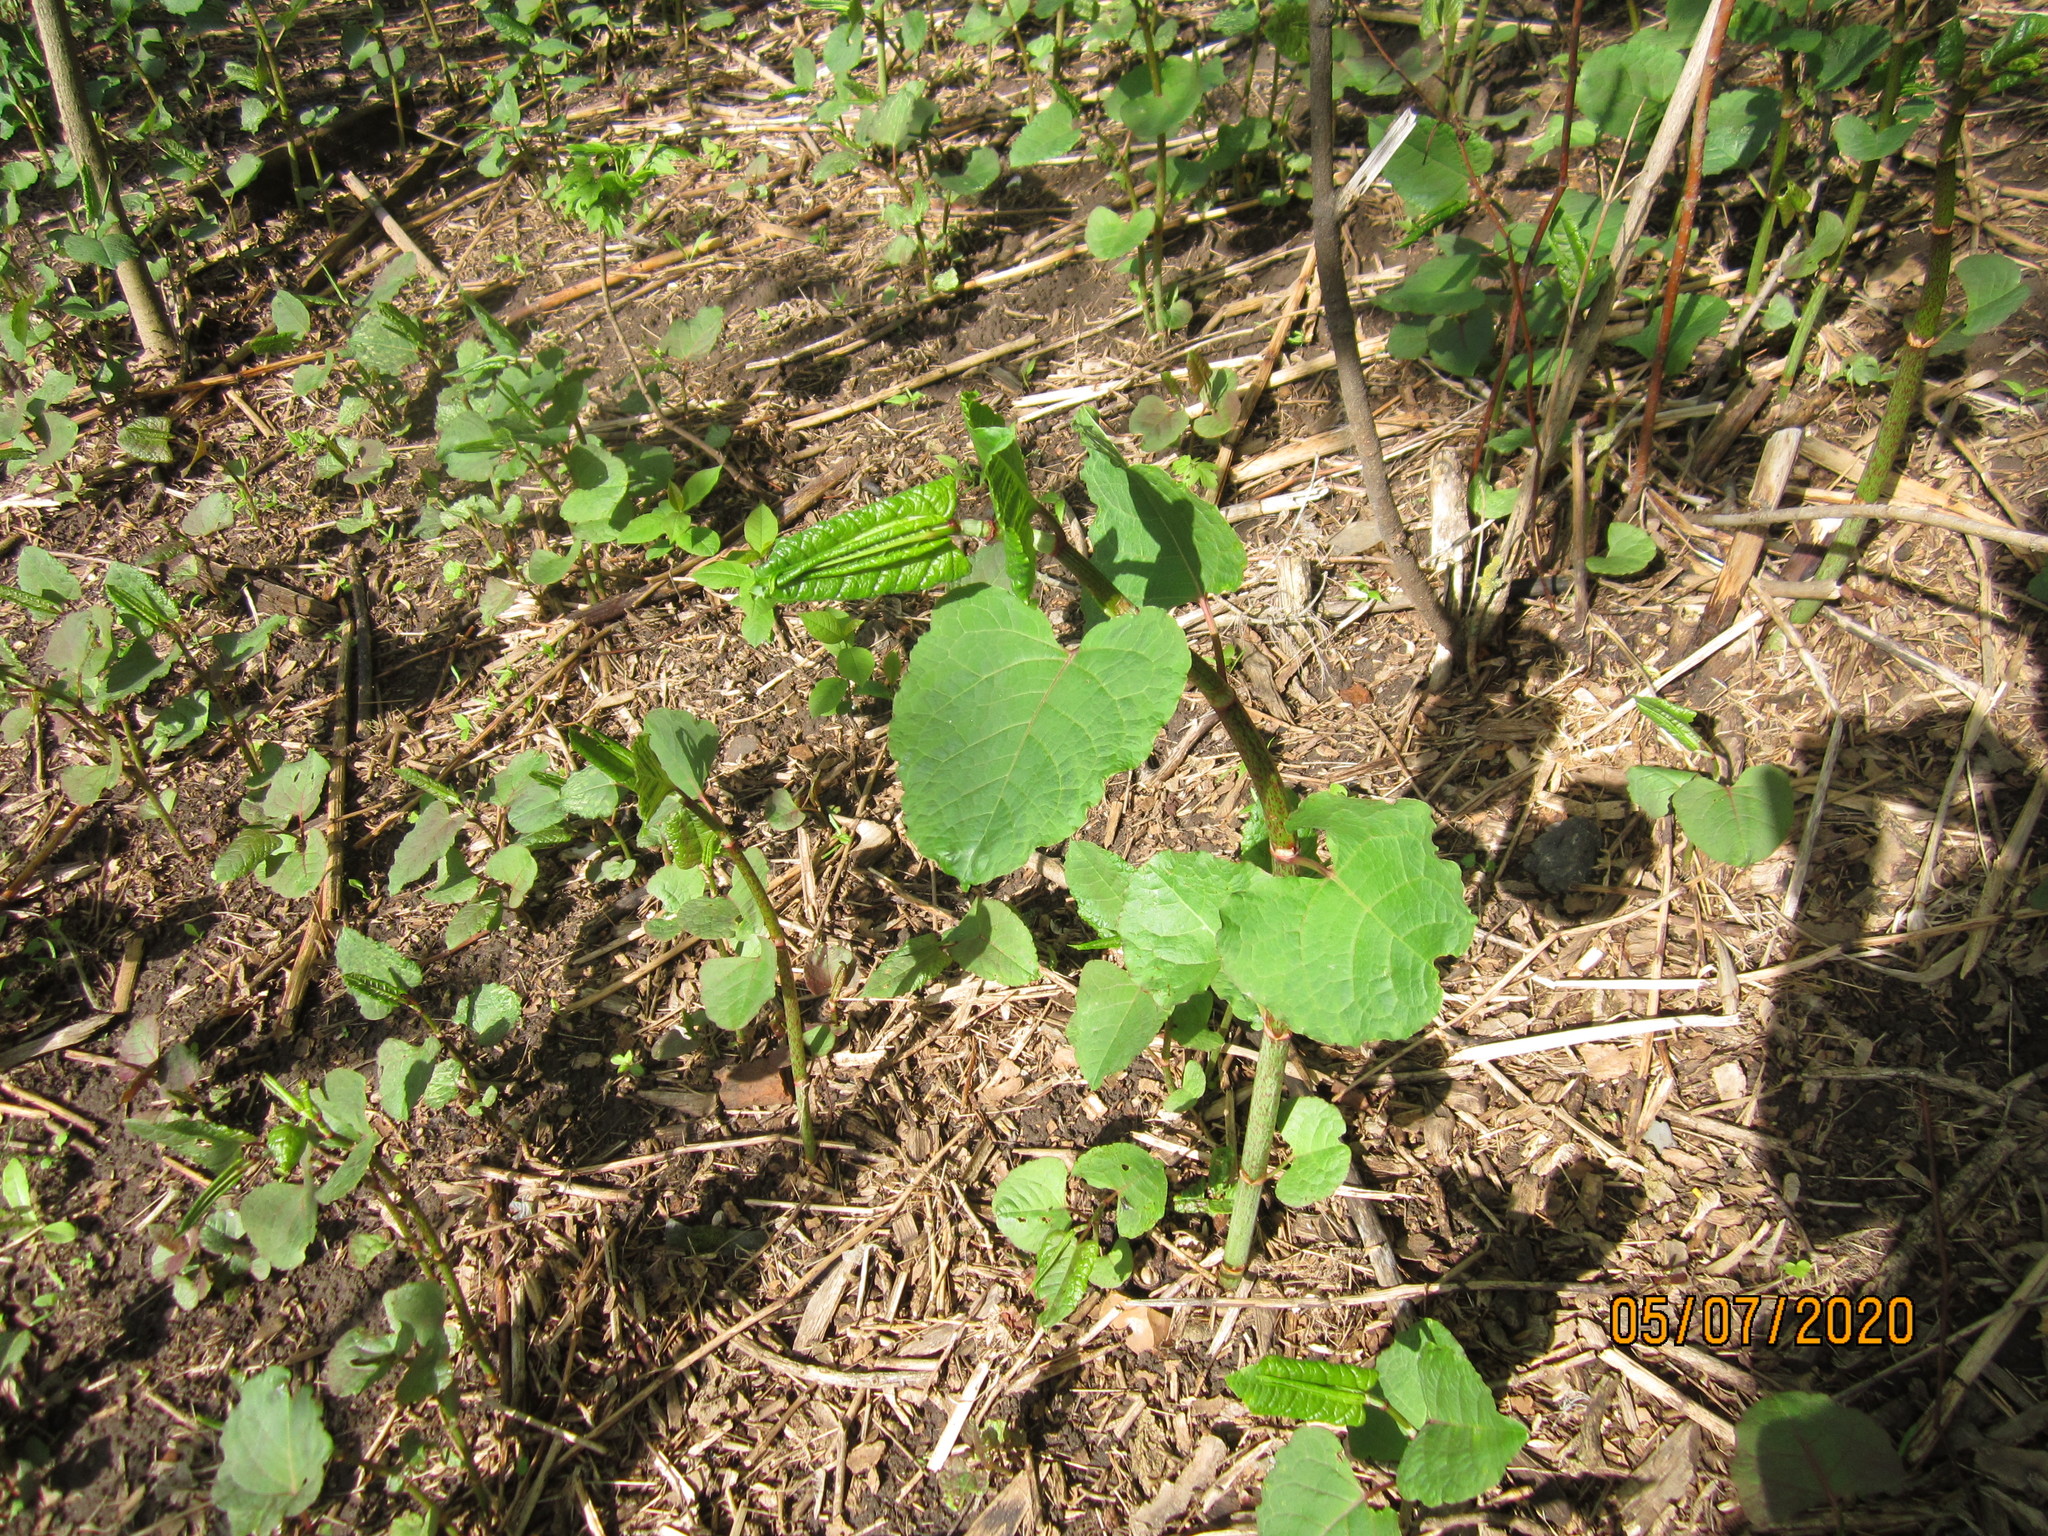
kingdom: Plantae
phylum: Tracheophyta
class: Magnoliopsida
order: Caryophyllales
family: Polygonaceae
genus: Reynoutria
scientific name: Reynoutria bohemica
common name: Bohemian knotweed
